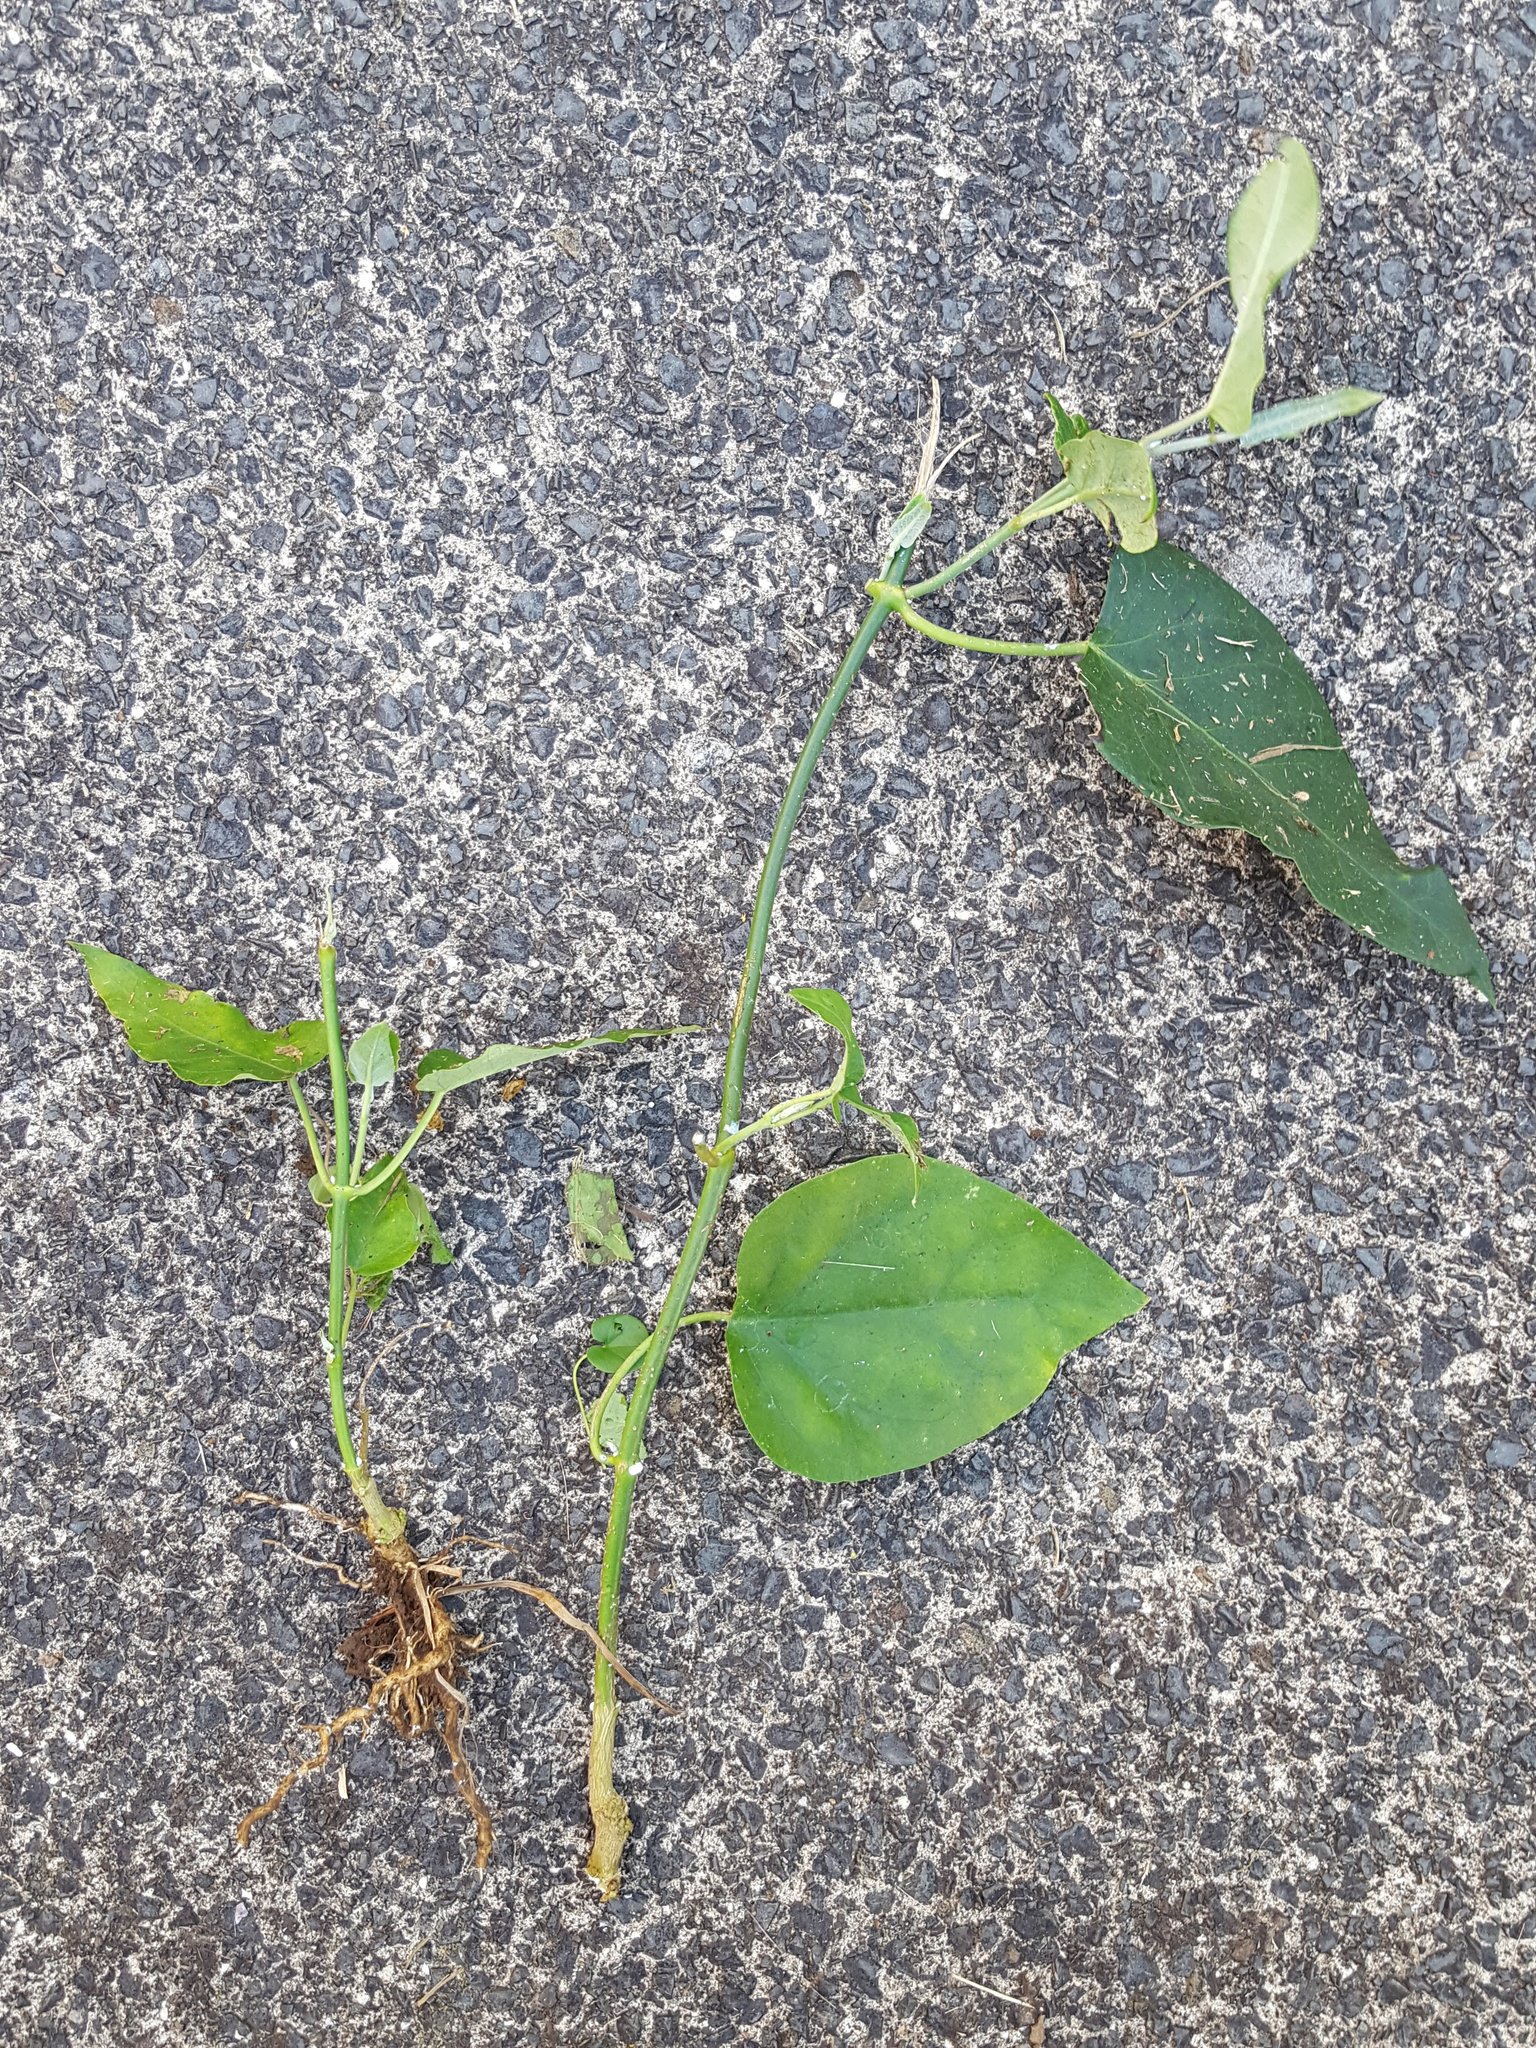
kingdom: Plantae
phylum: Tracheophyta
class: Magnoliopsida
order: Gentianales
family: Apocynaceae
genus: Araujia
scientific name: Araujia sericifera
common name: White bladderflower
